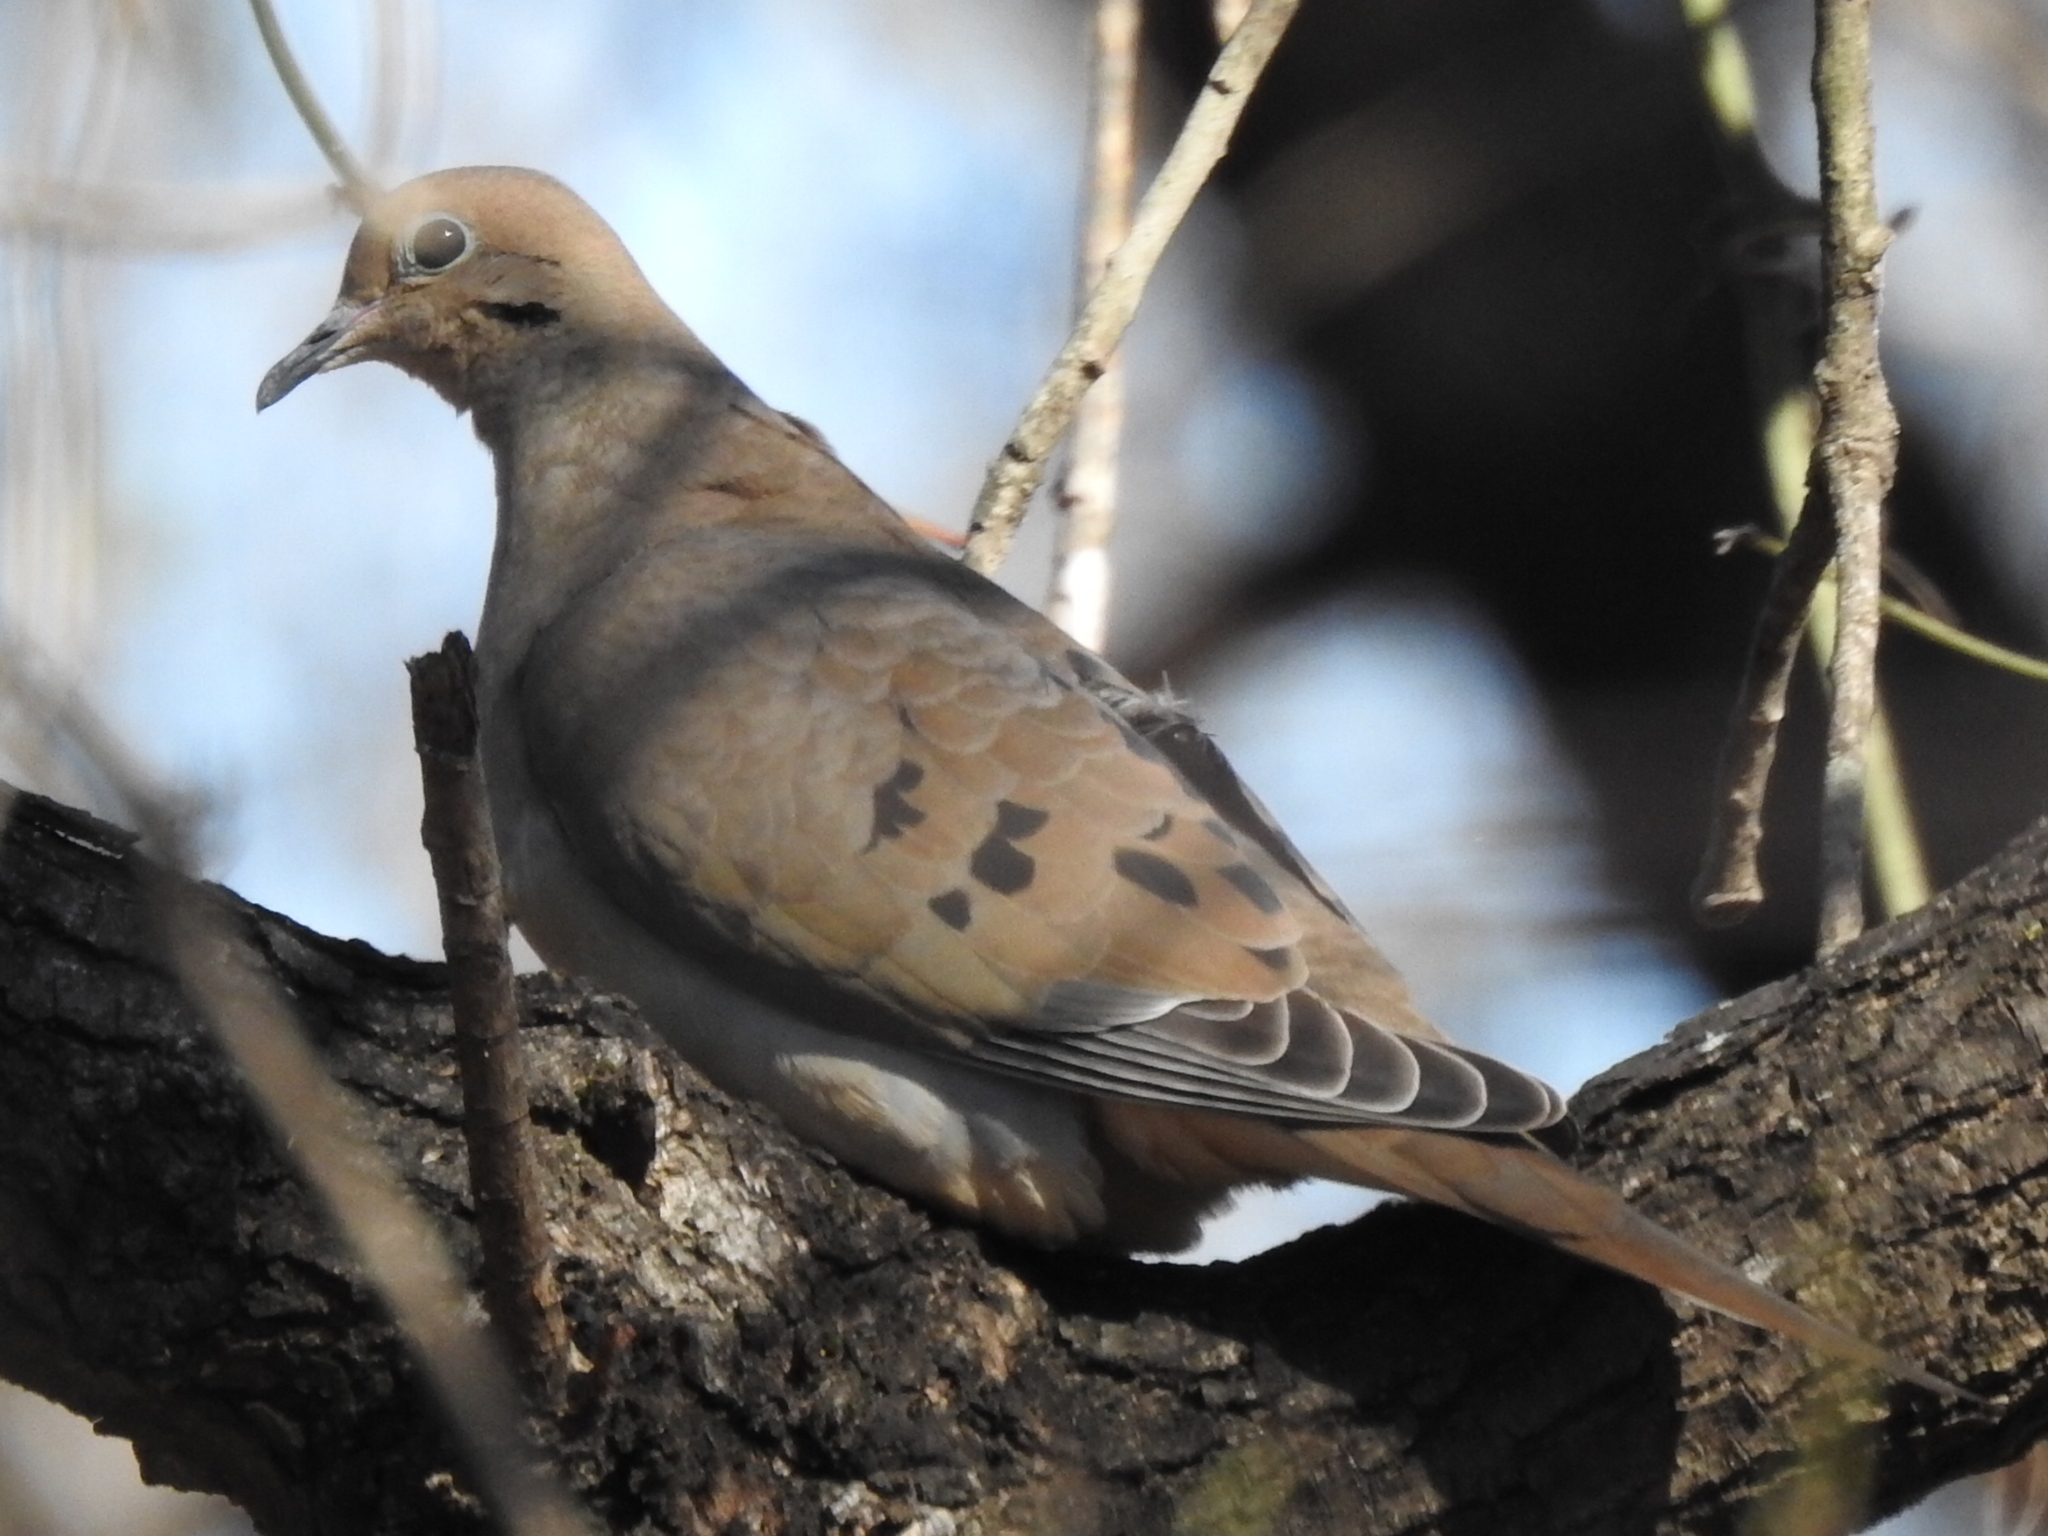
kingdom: Animalia
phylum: Chordata
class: Aves
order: Columbiformes
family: Columbidae
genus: Zenaida
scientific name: Zenaida macroura
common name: Mourning dove
